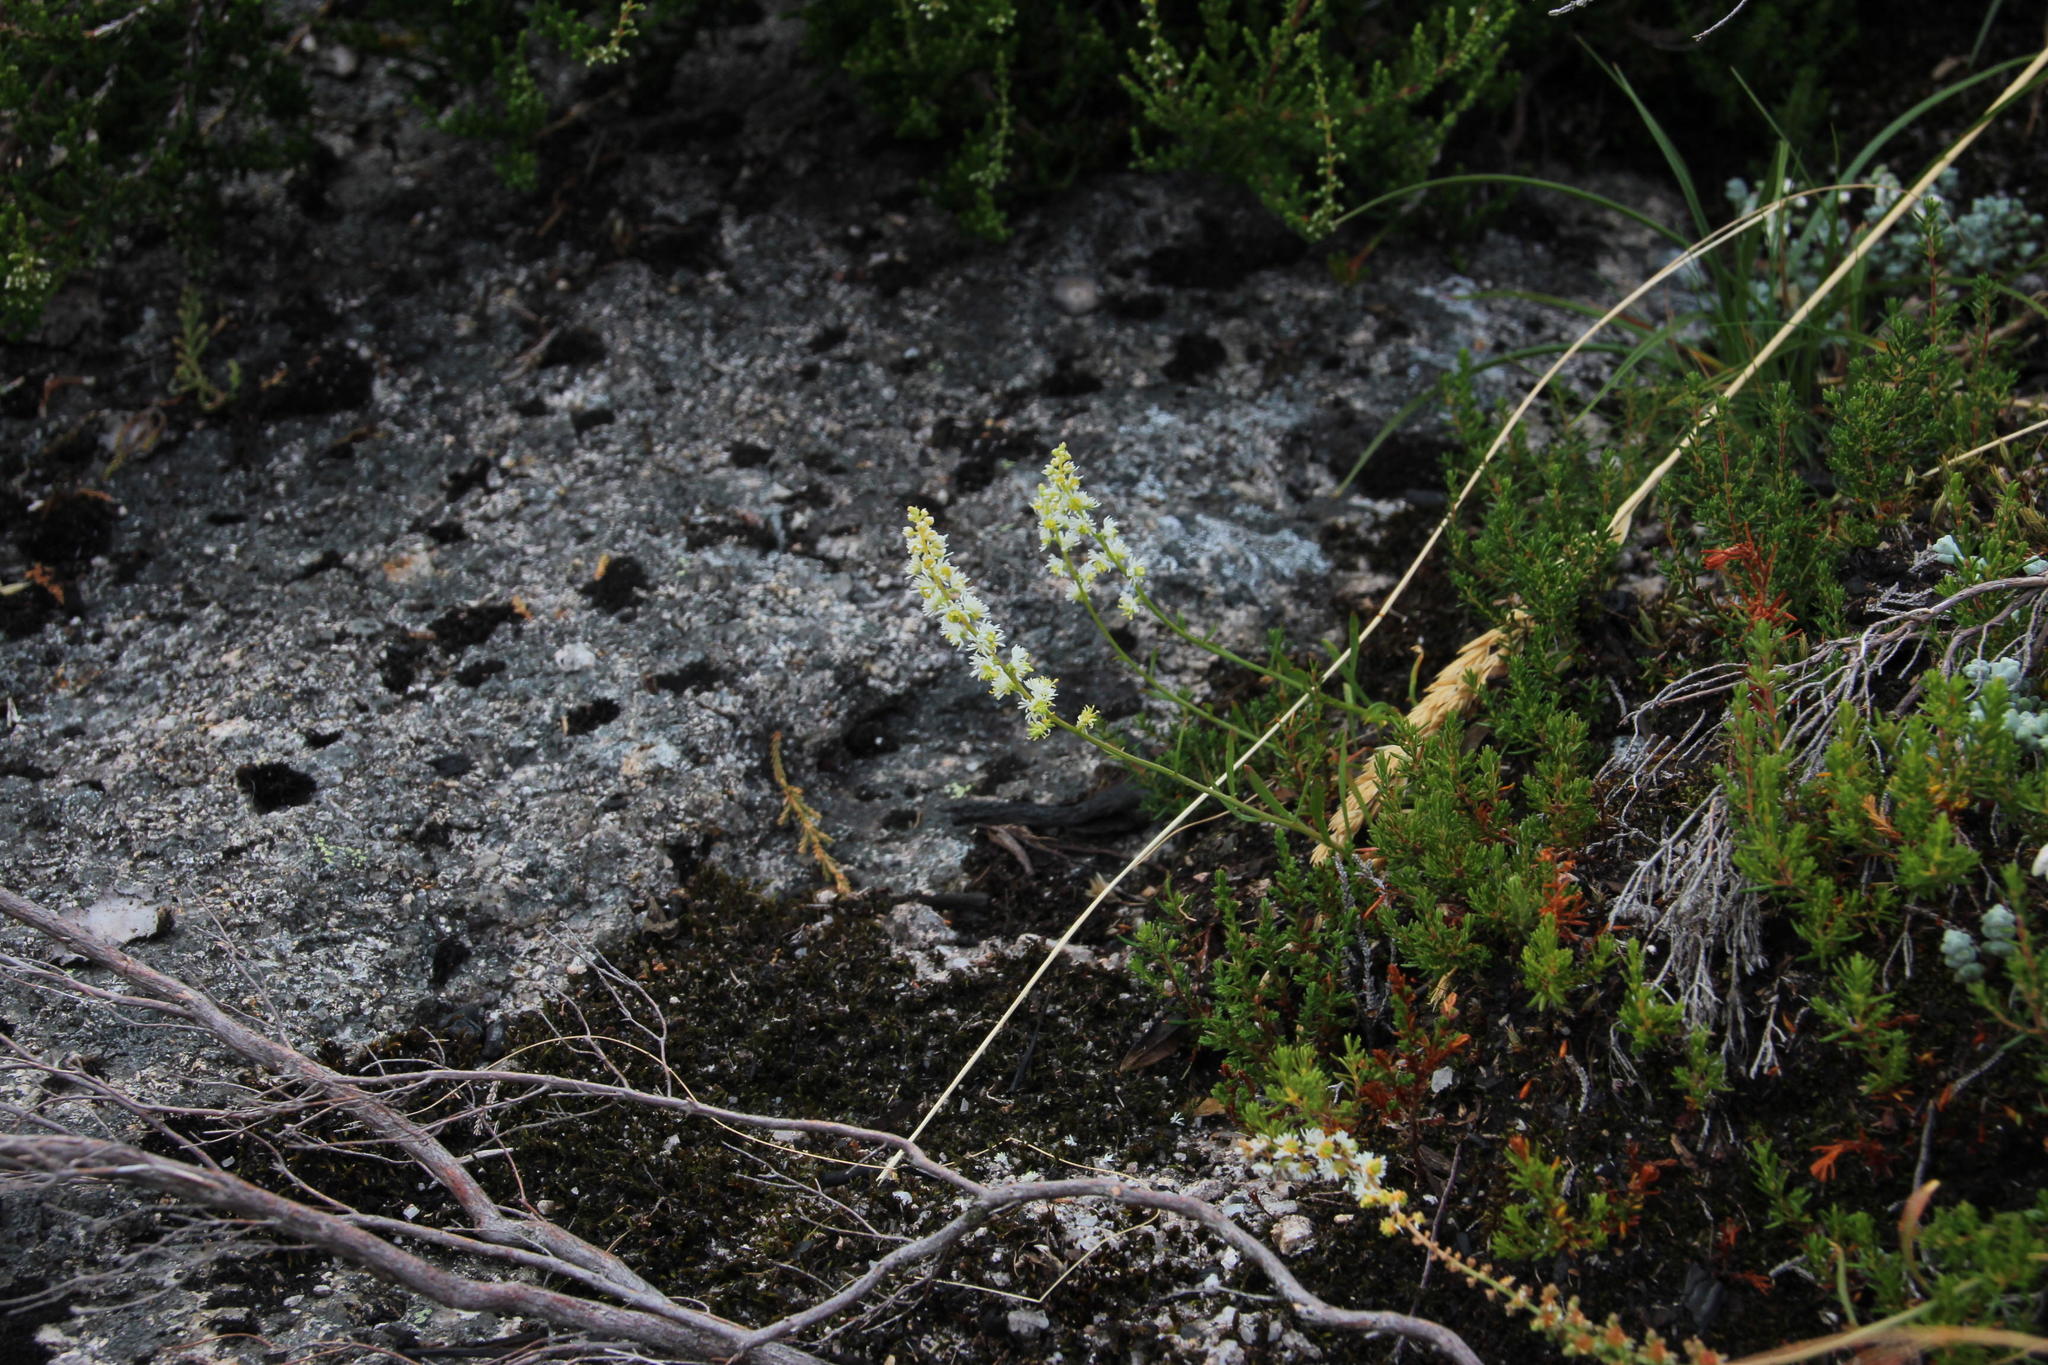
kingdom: Plantae
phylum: Tracheophyta
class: Magnoliopsida
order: Brassicales
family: Resedaceae
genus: Sesamoides
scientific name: Sesamoides purpurascens
